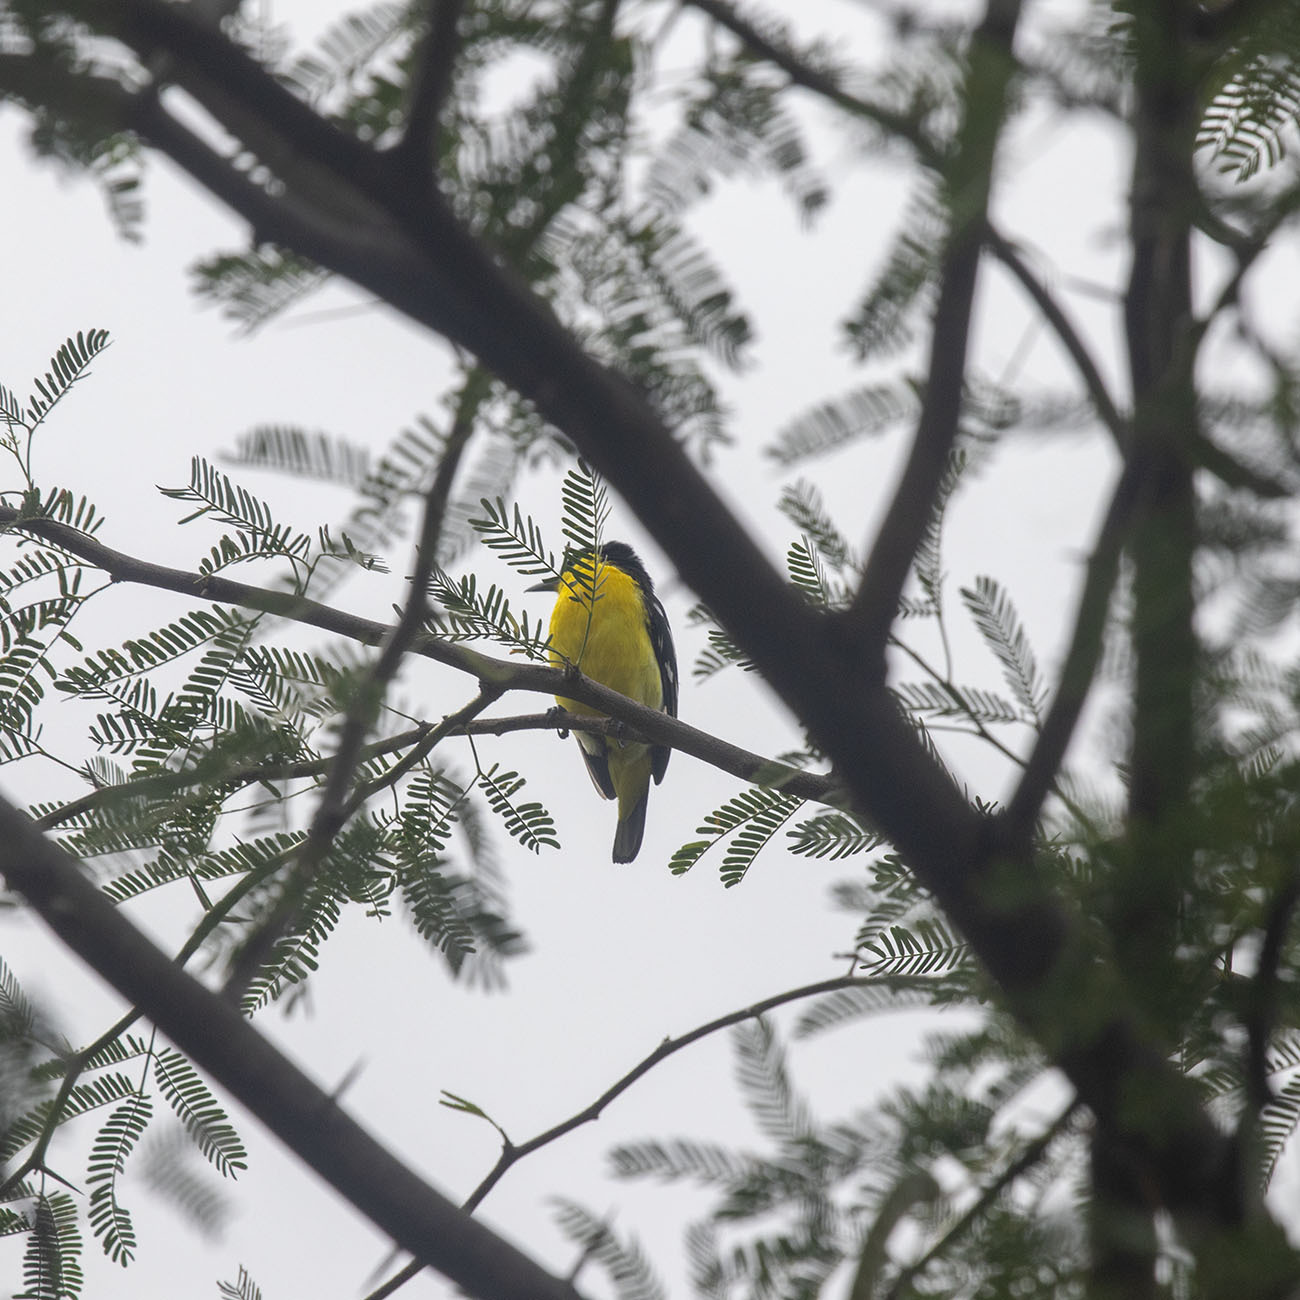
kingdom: Animalia
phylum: Chordata
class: Aves
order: Passeriformes
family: Aegithinidae
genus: Aegithina
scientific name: Aegithina tiphia
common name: Common iora
